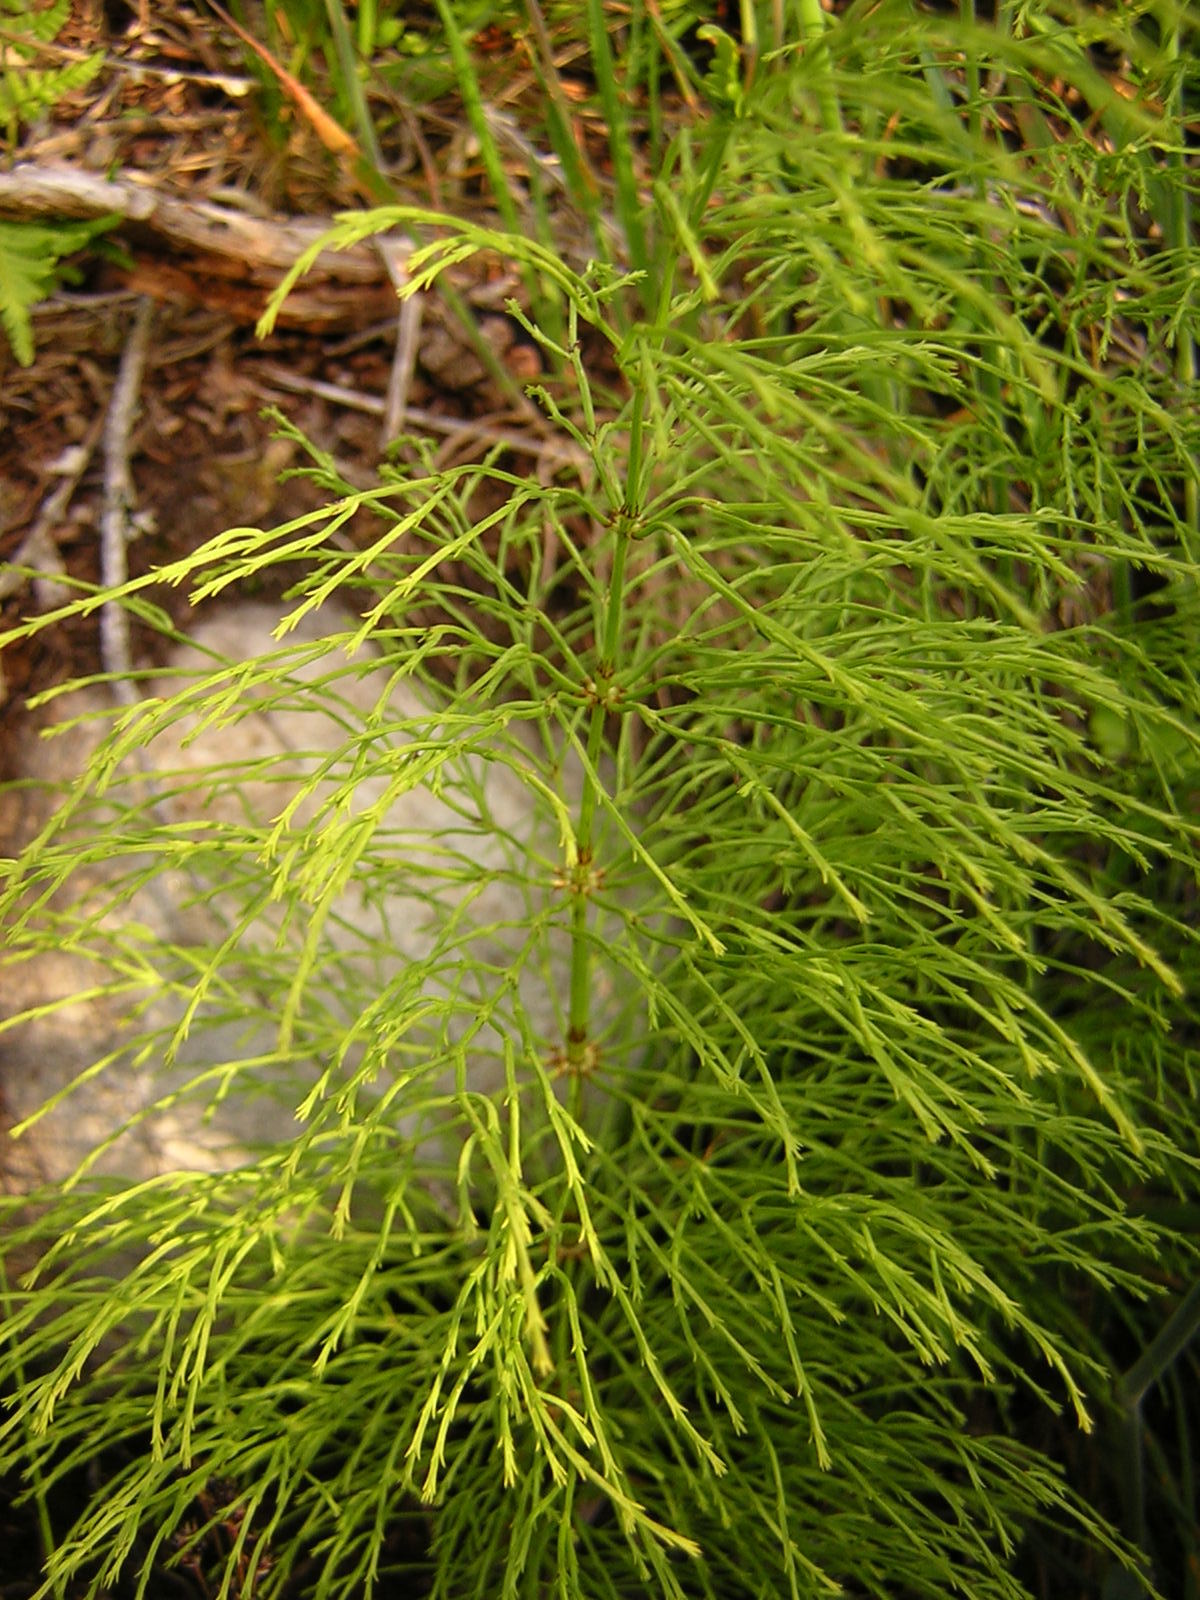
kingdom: Plantae
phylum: Tracheophyta
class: Polypodiopsida
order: Equisetales
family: Equisetaceae
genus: Equisetum
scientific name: Equisetum sylvaticum
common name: Wood horsetail
